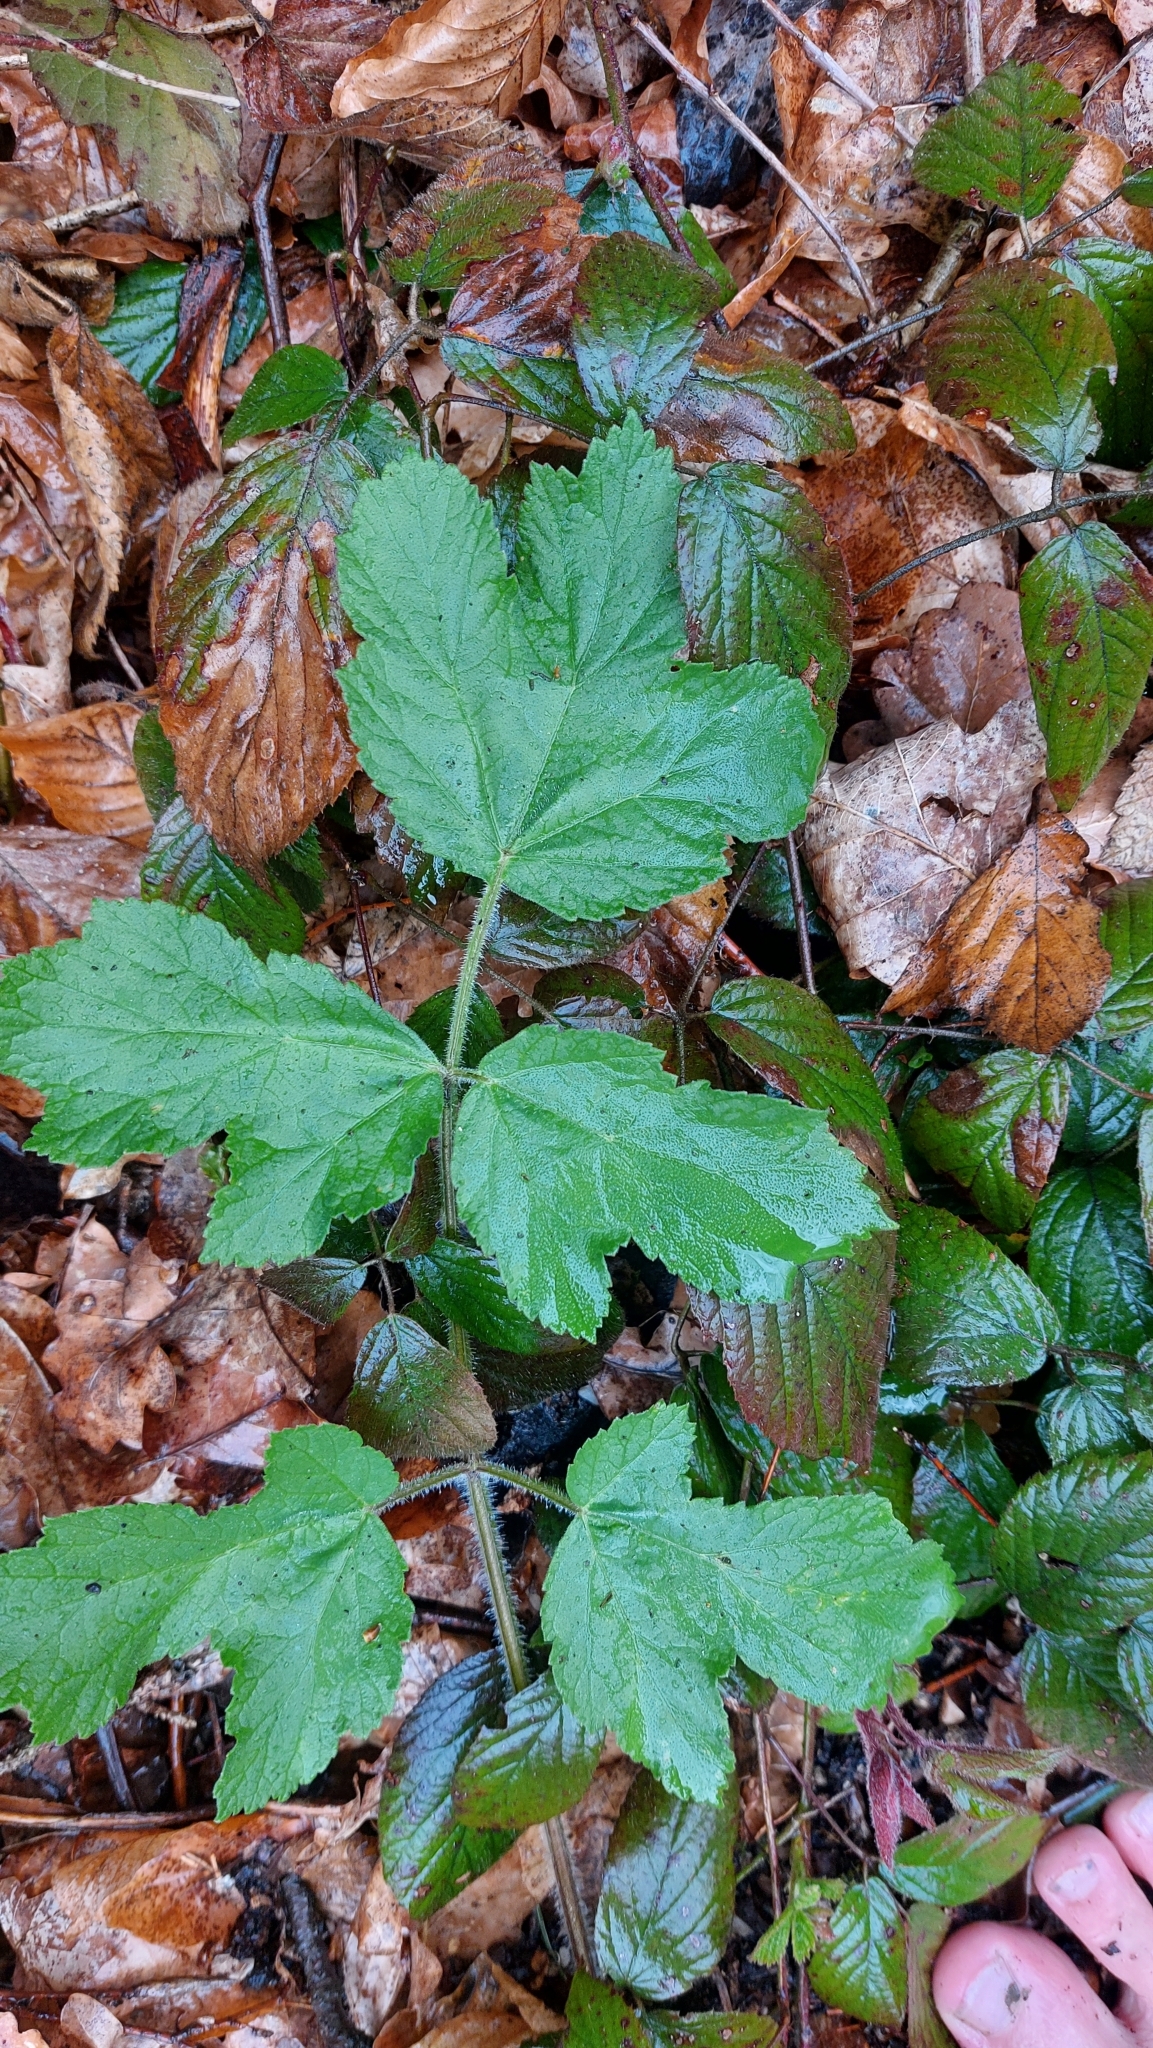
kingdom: Plantae
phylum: Tracheophyta
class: Magnoliopsida
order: Apiales
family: Apiaceae
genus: Heracleum
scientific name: Heracleum sphondylium
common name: Hogweed
